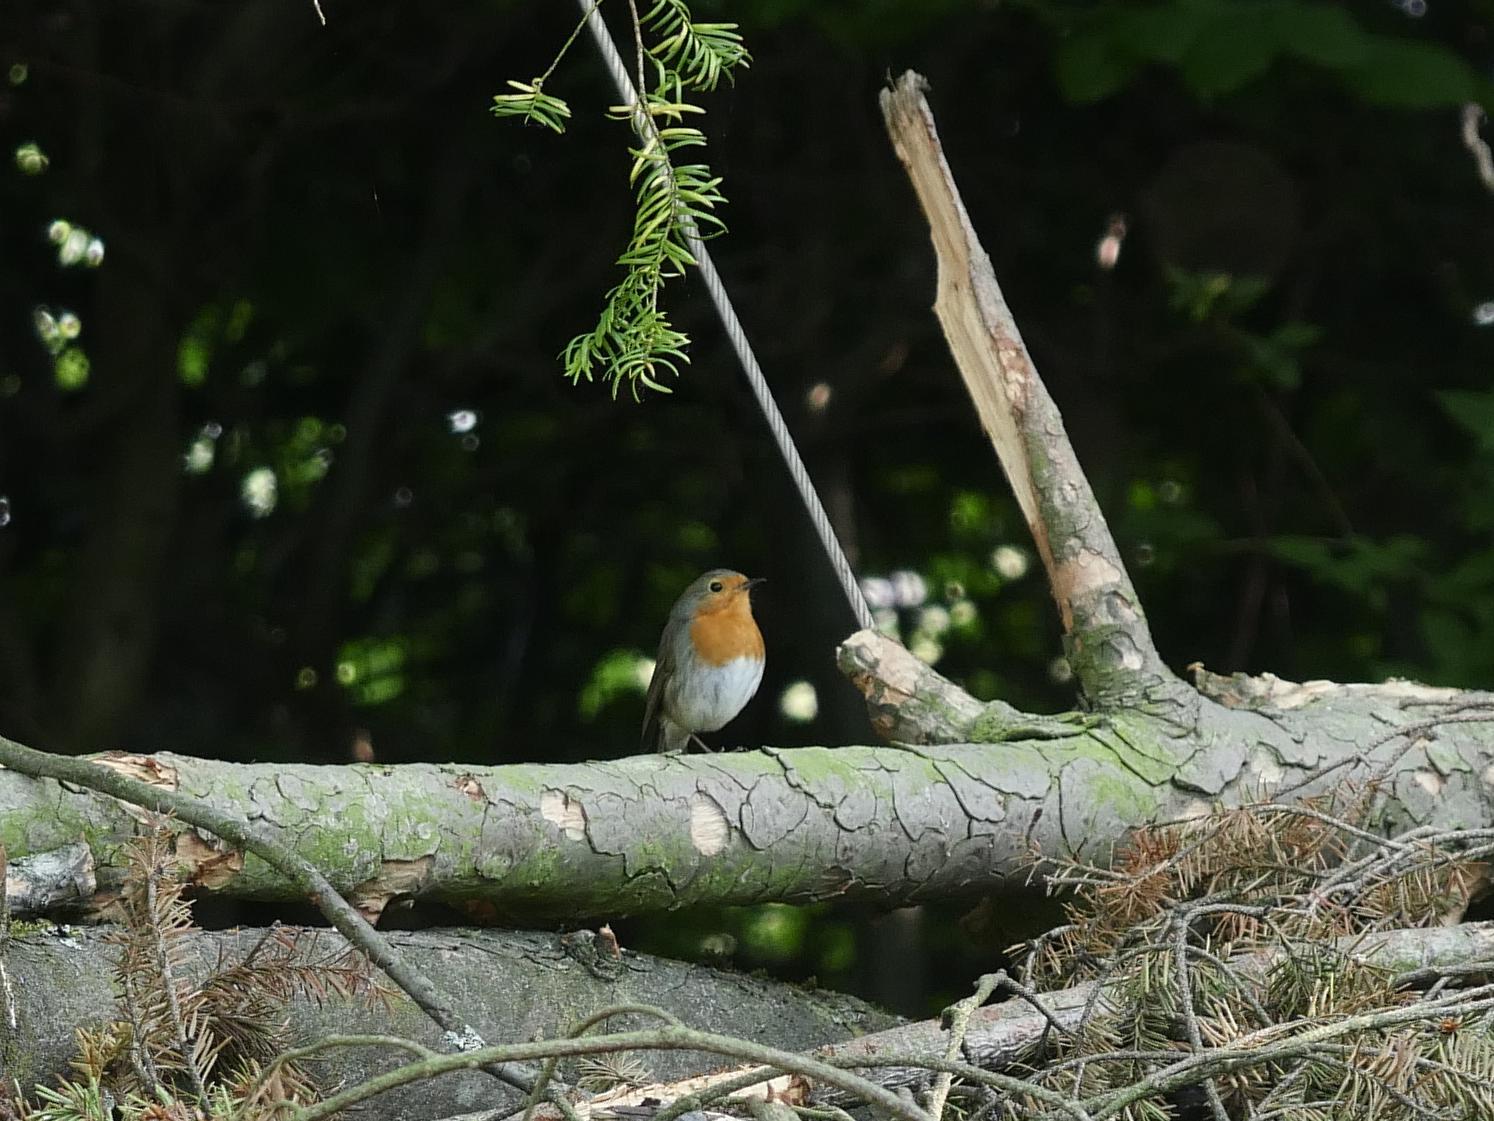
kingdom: Animalia
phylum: Chordata
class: Aves
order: Passeriformes
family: Muscicapidae
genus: Erithacus
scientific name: Erithacus rubecula
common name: European robin
